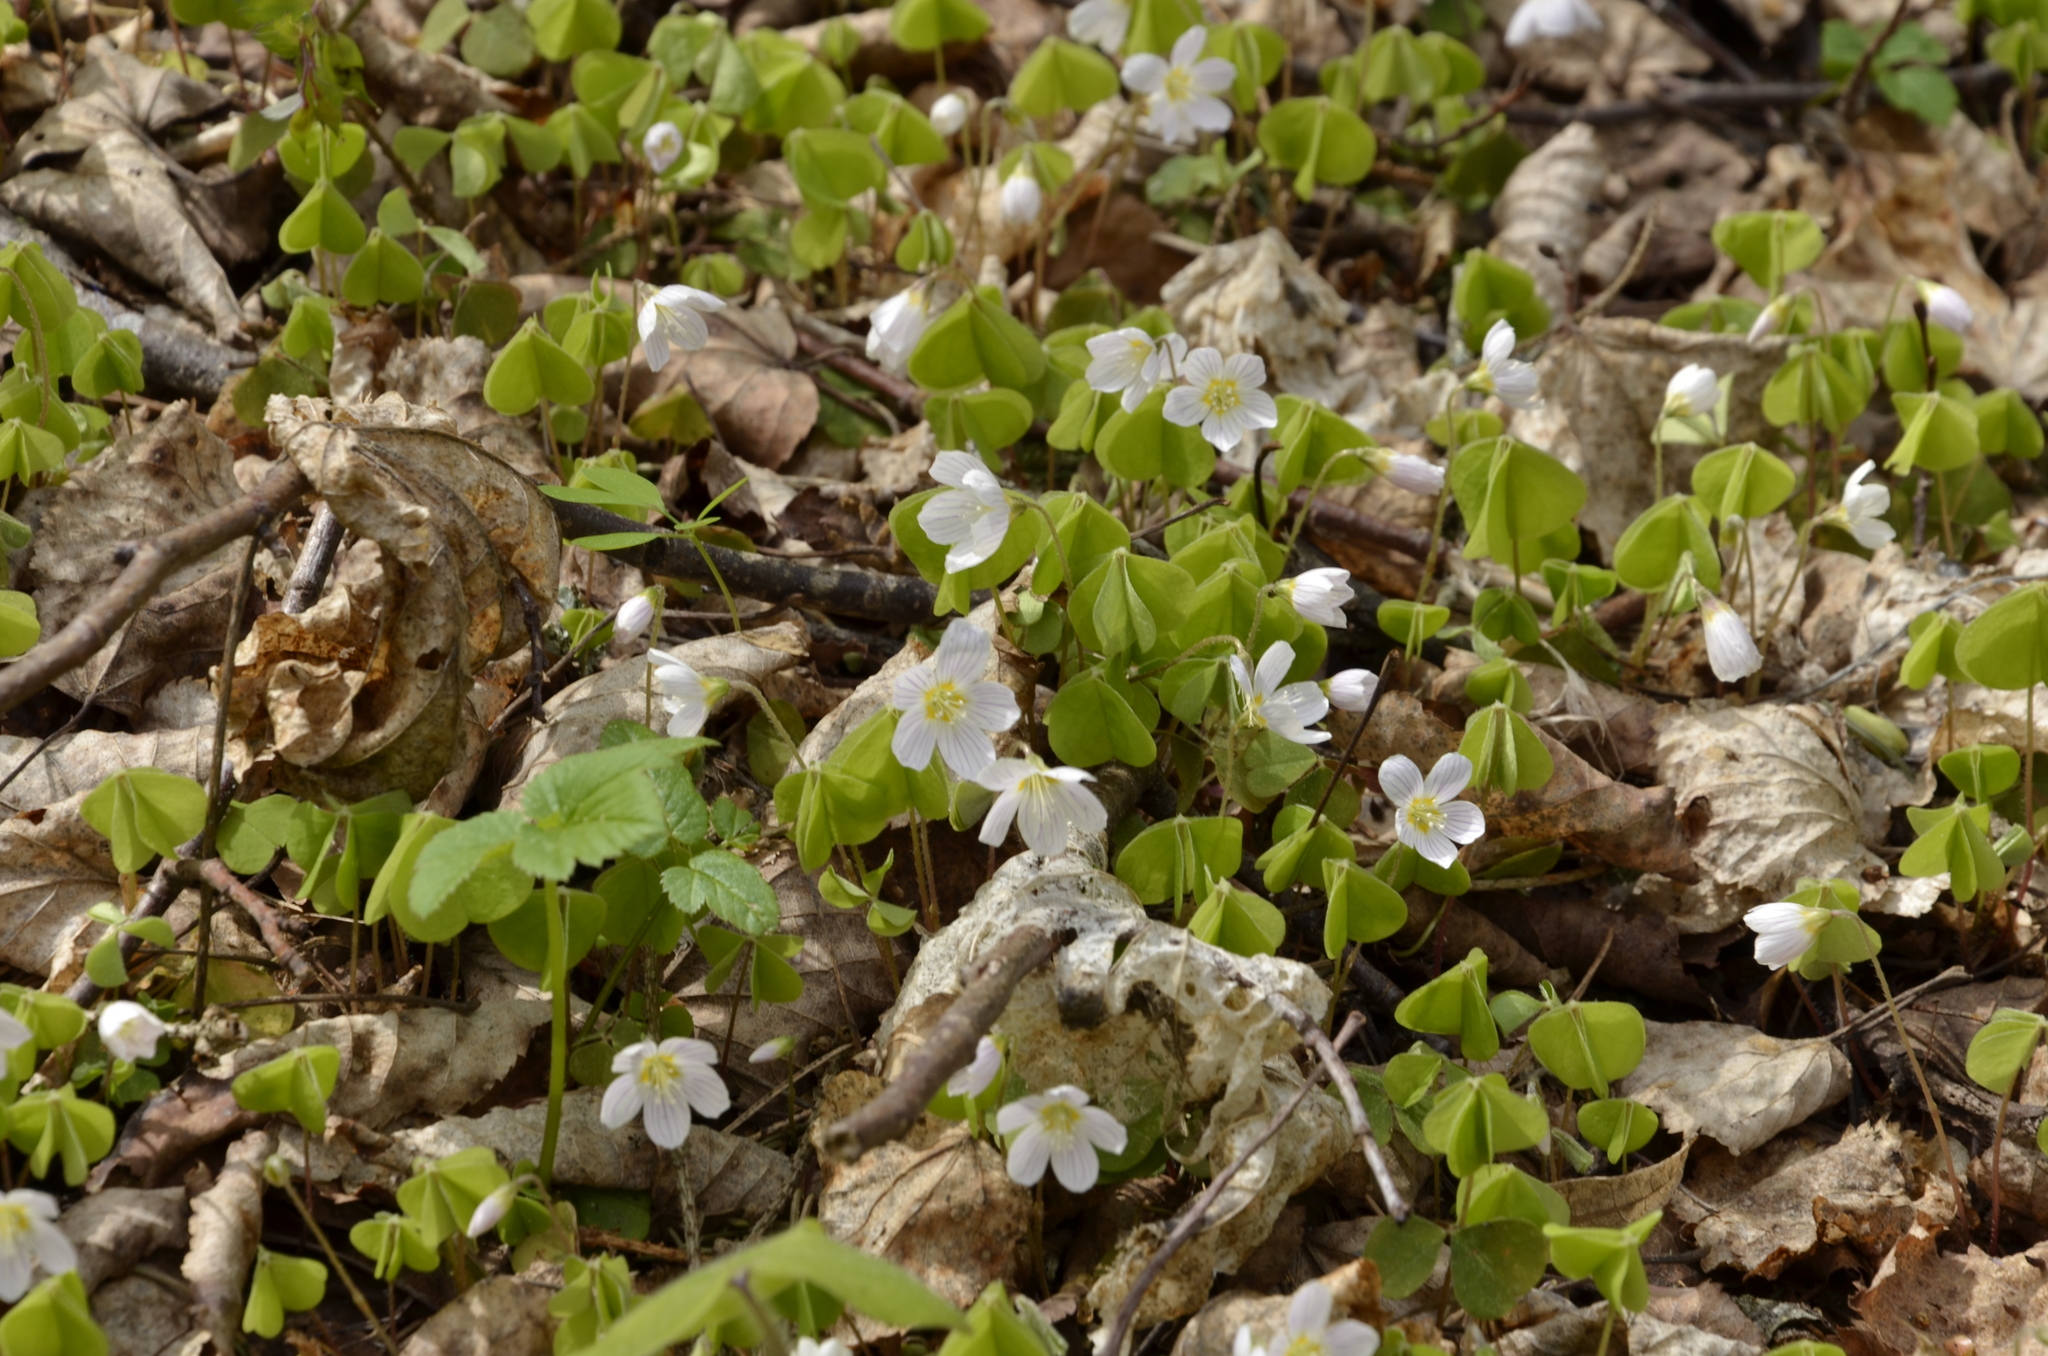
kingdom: Plantae
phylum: Tracheophyta
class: Magnoliopsida
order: Oxalidales
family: Oxalidaceae
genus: Oxalis
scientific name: Oxalis acetosella
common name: Wood-sorrel
